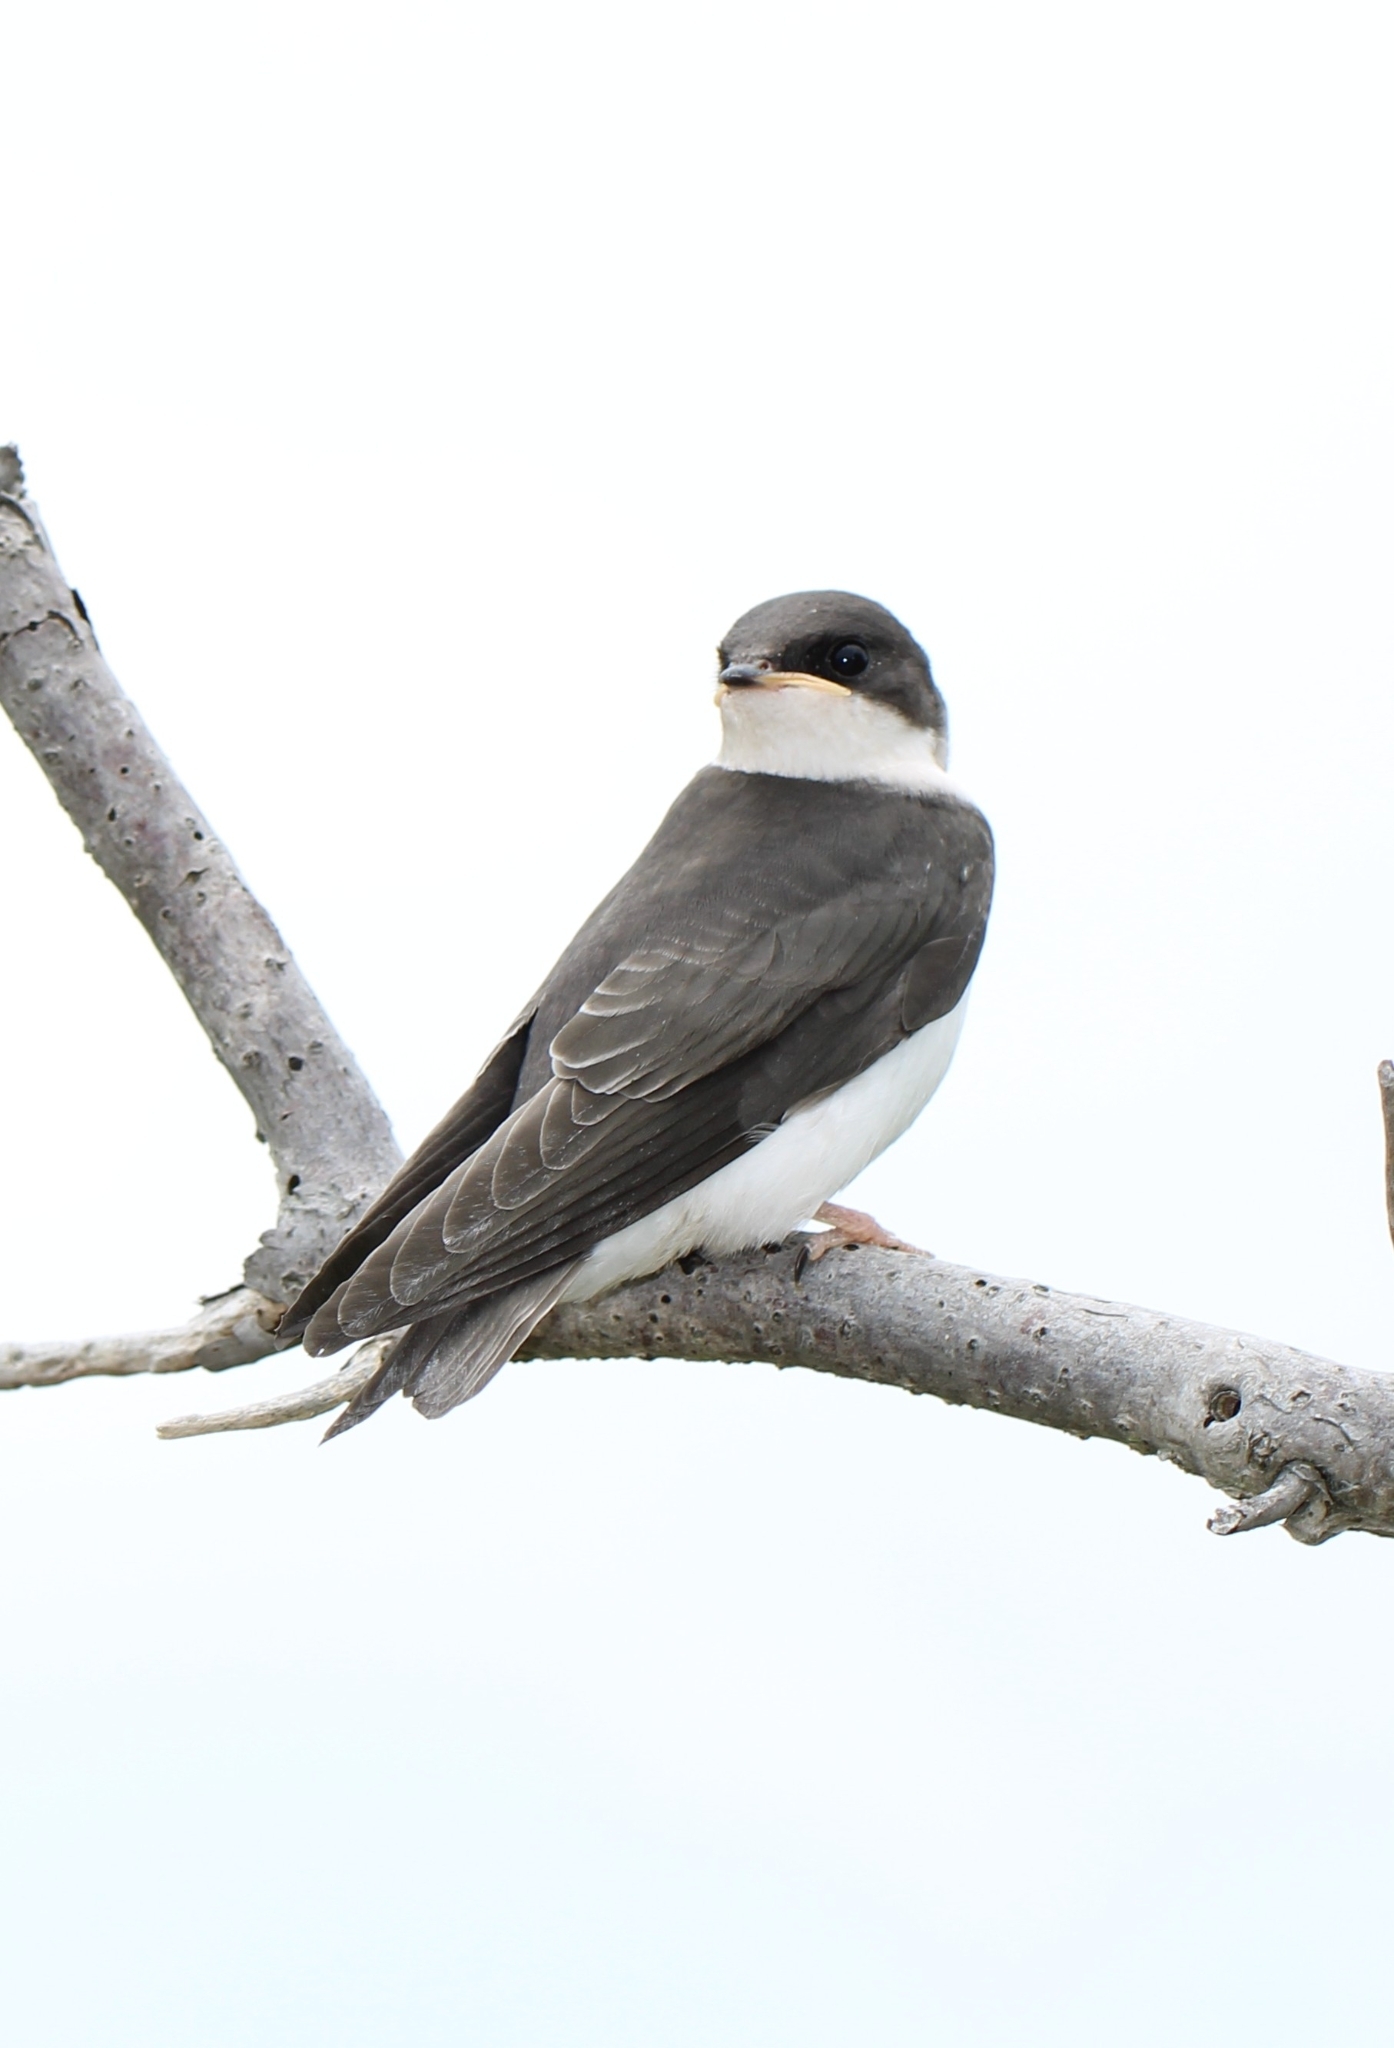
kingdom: Animalia
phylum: Chordata
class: Aves
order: Passeriformes
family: Hirundinidae
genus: Tachycineta
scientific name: Tachycineta bicolor
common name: Tree swallow
